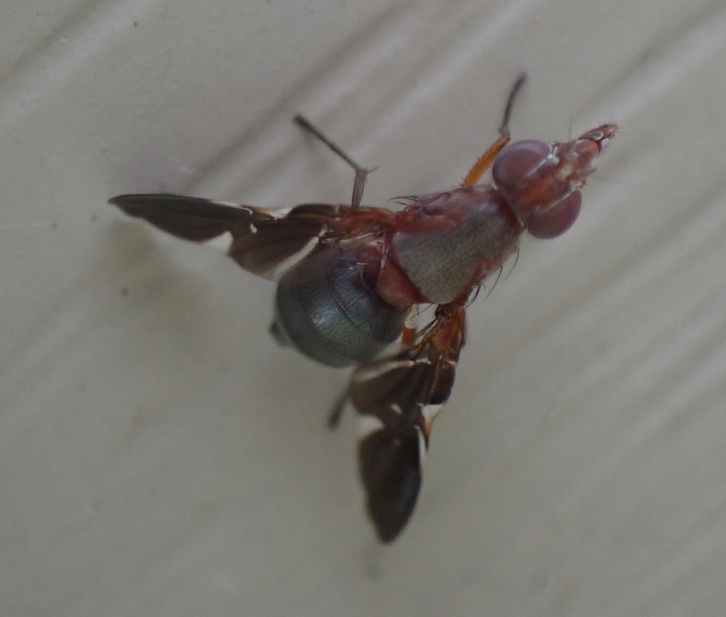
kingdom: Animalia
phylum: Arthropoda
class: Insecta
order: Diptera
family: Ulidiidae
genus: Delphinia
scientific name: Delphinia picta
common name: Common picture-winged fly
